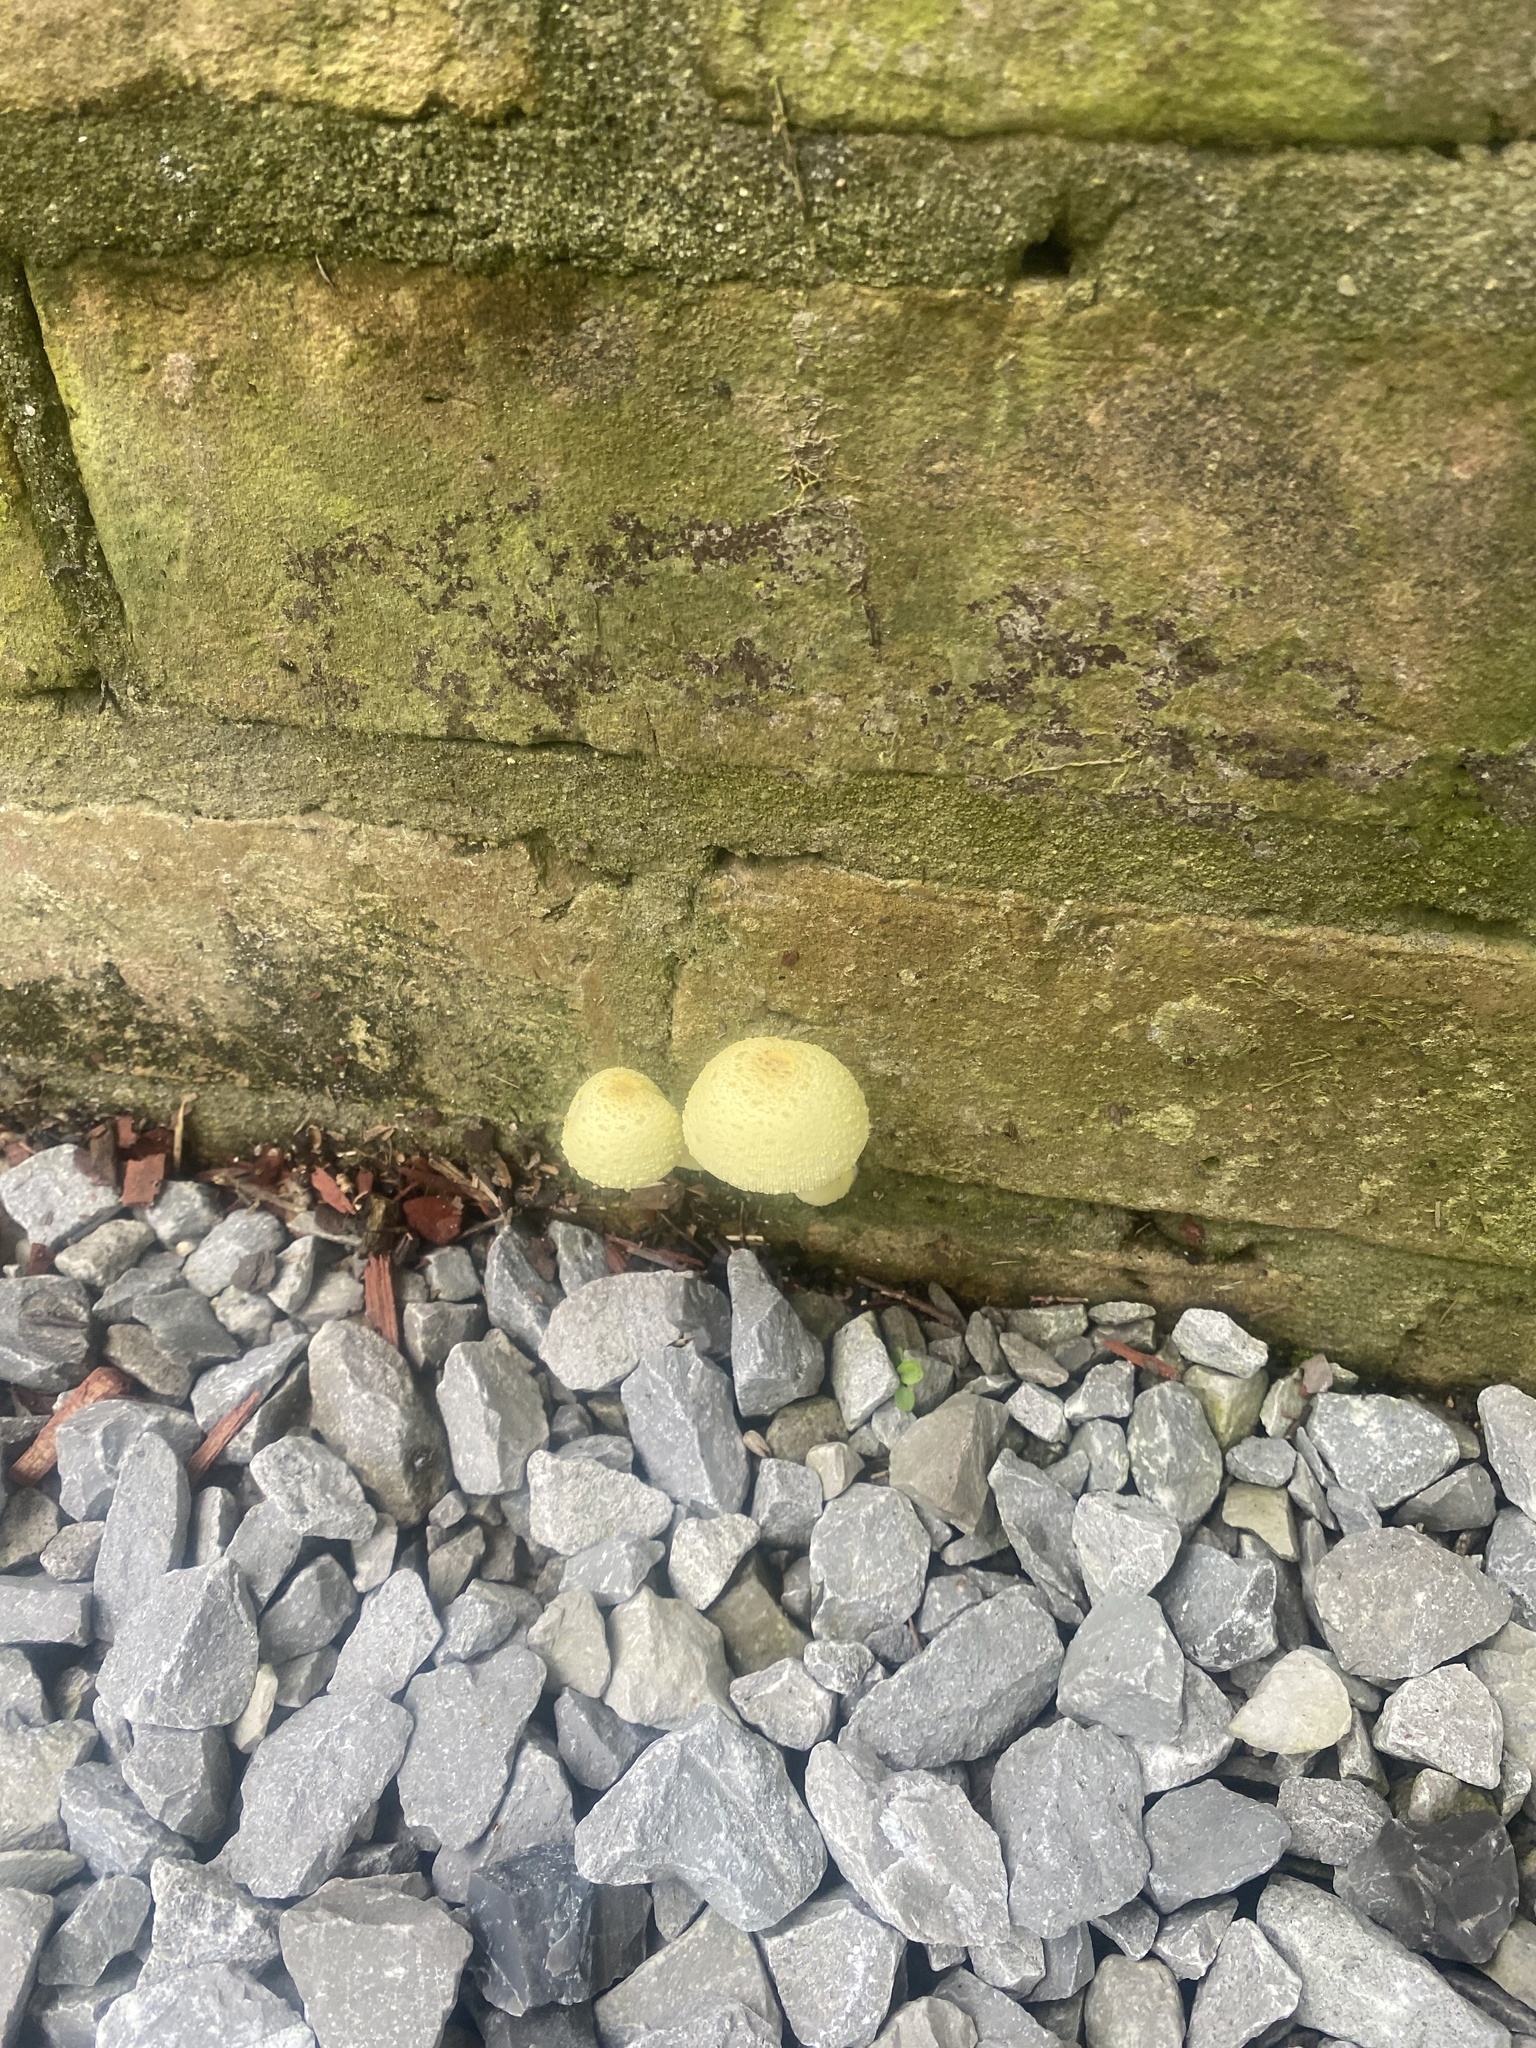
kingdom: Fungi
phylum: Basidiomycota
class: Agaricomycetes
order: Agaricales
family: Agaricaceae
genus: Leucocoprinus
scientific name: Leucocoprinus birnbaumii
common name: Plantpot dapperling
